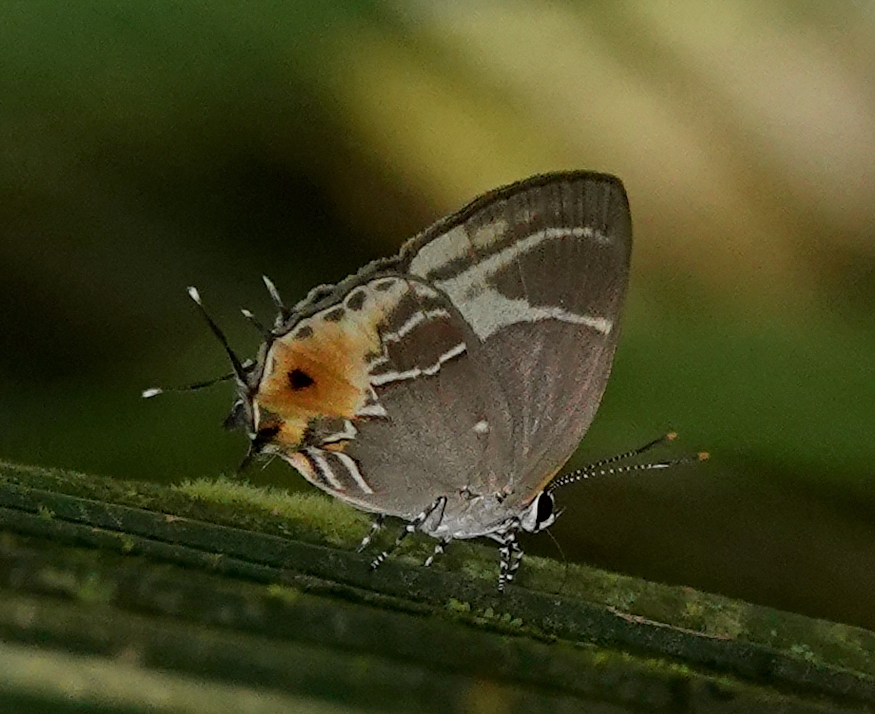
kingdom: Animalia
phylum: Arthropoda
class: Insecta
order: Lepidoptera
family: Lycaenidae
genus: Thecla
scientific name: Thecla terentia
